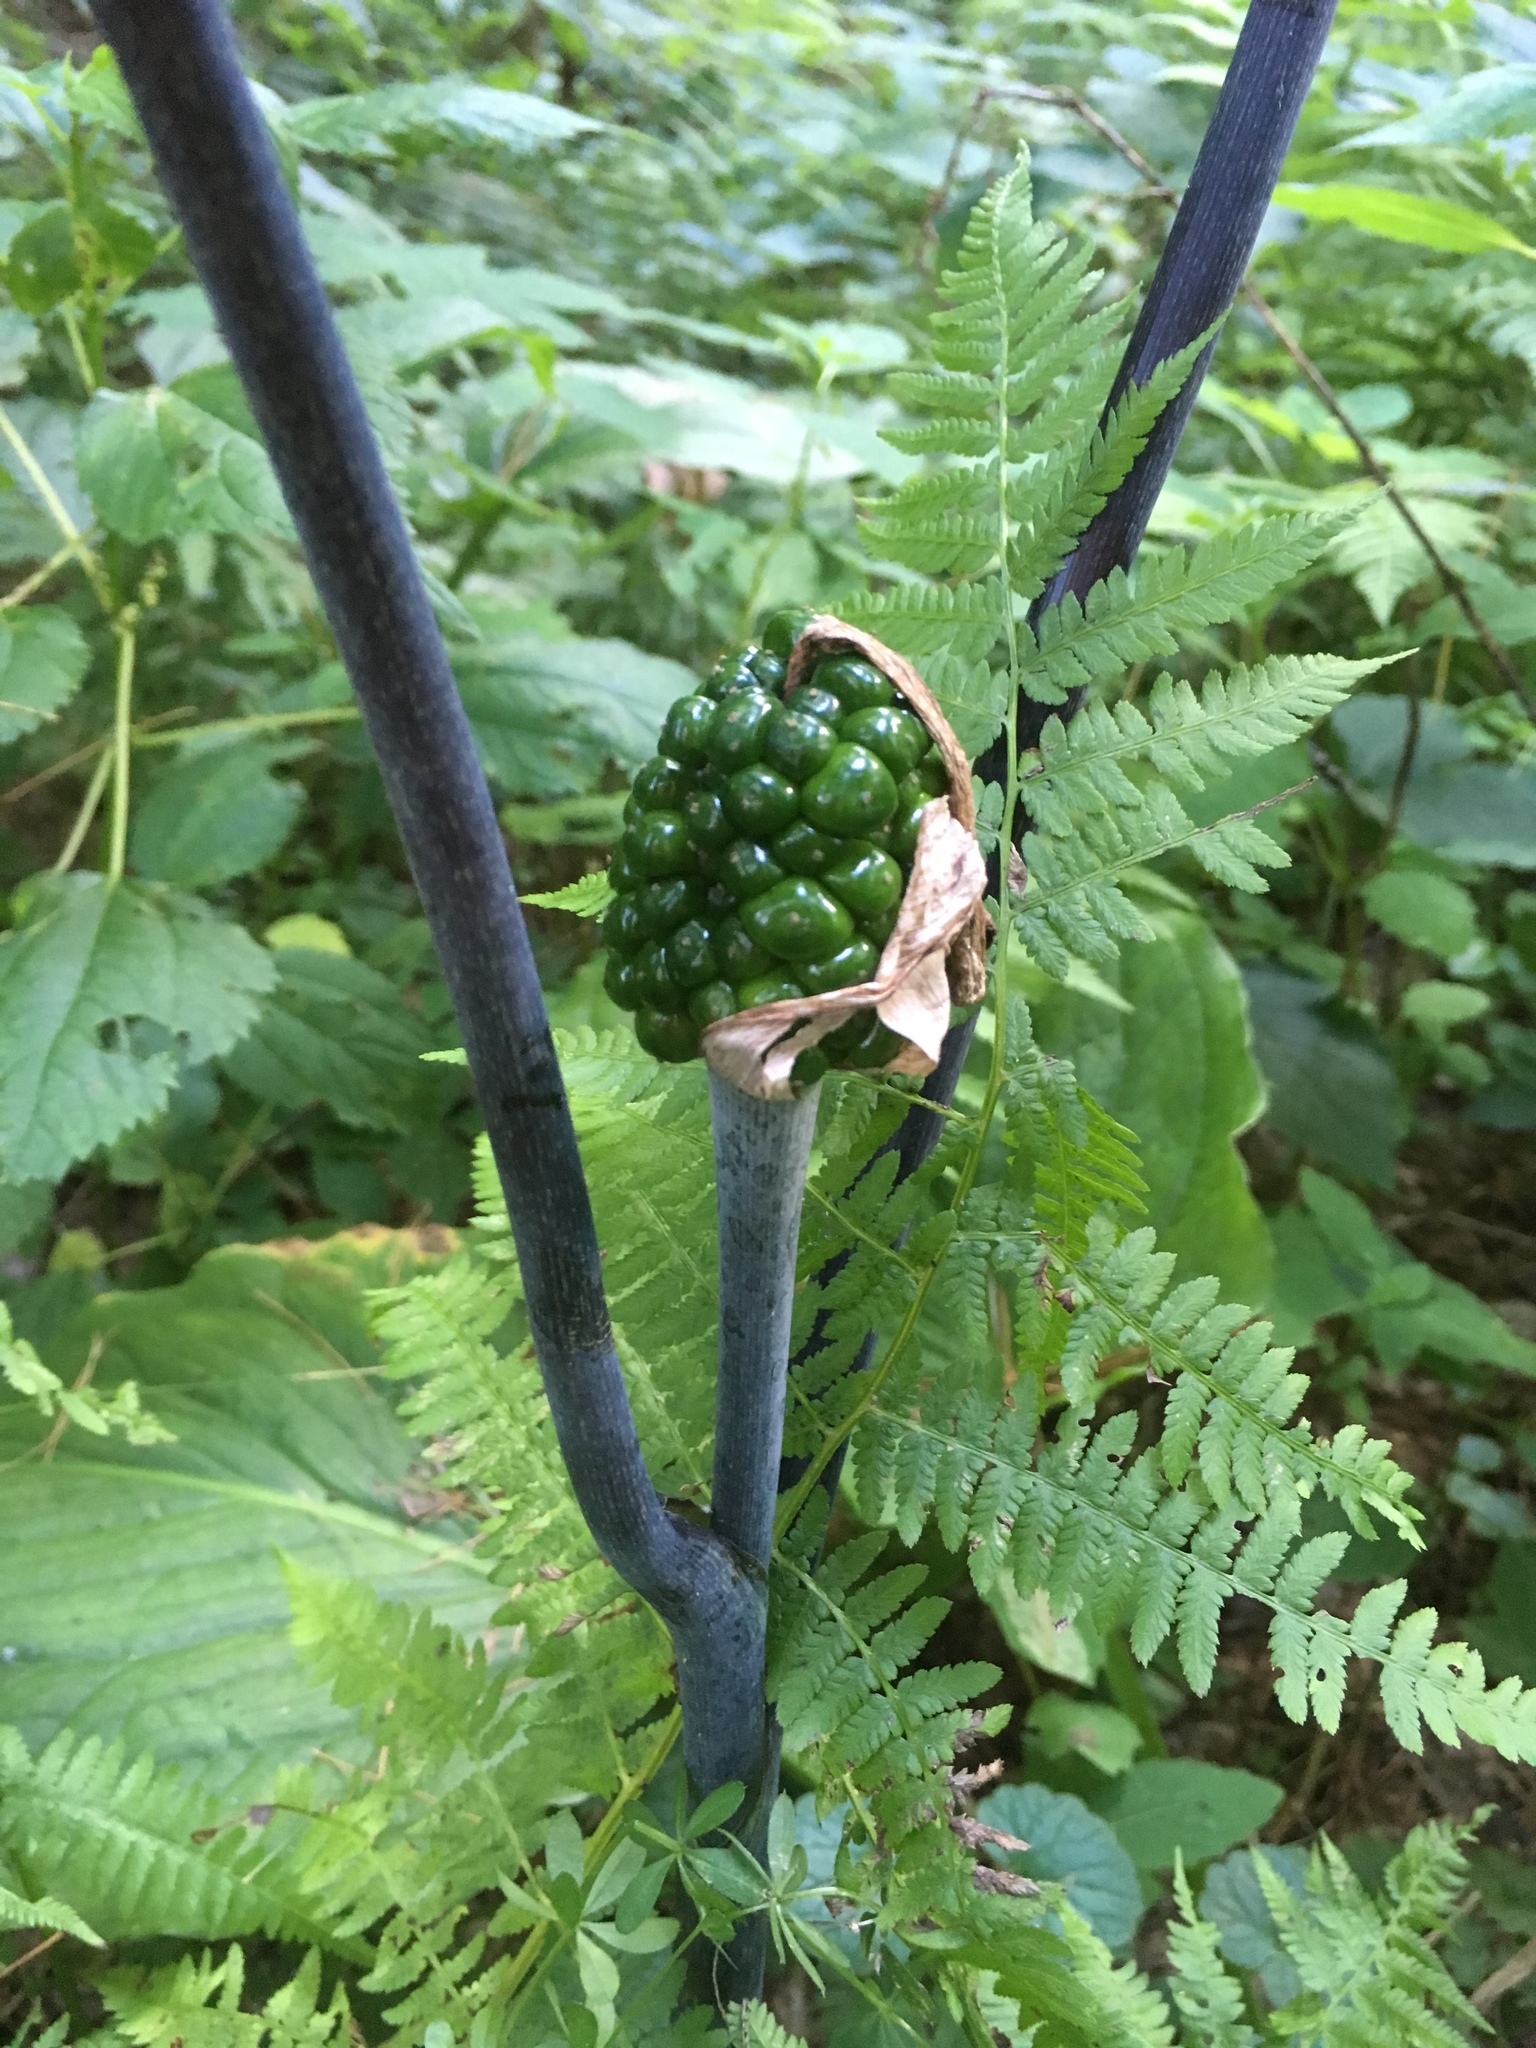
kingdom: Plantae
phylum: Tracheophyta
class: Liliopsida
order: Alismatales
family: Araceae
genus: Arisaema
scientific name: Arisaema triphyllum
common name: Jack-in-the-pulpit
